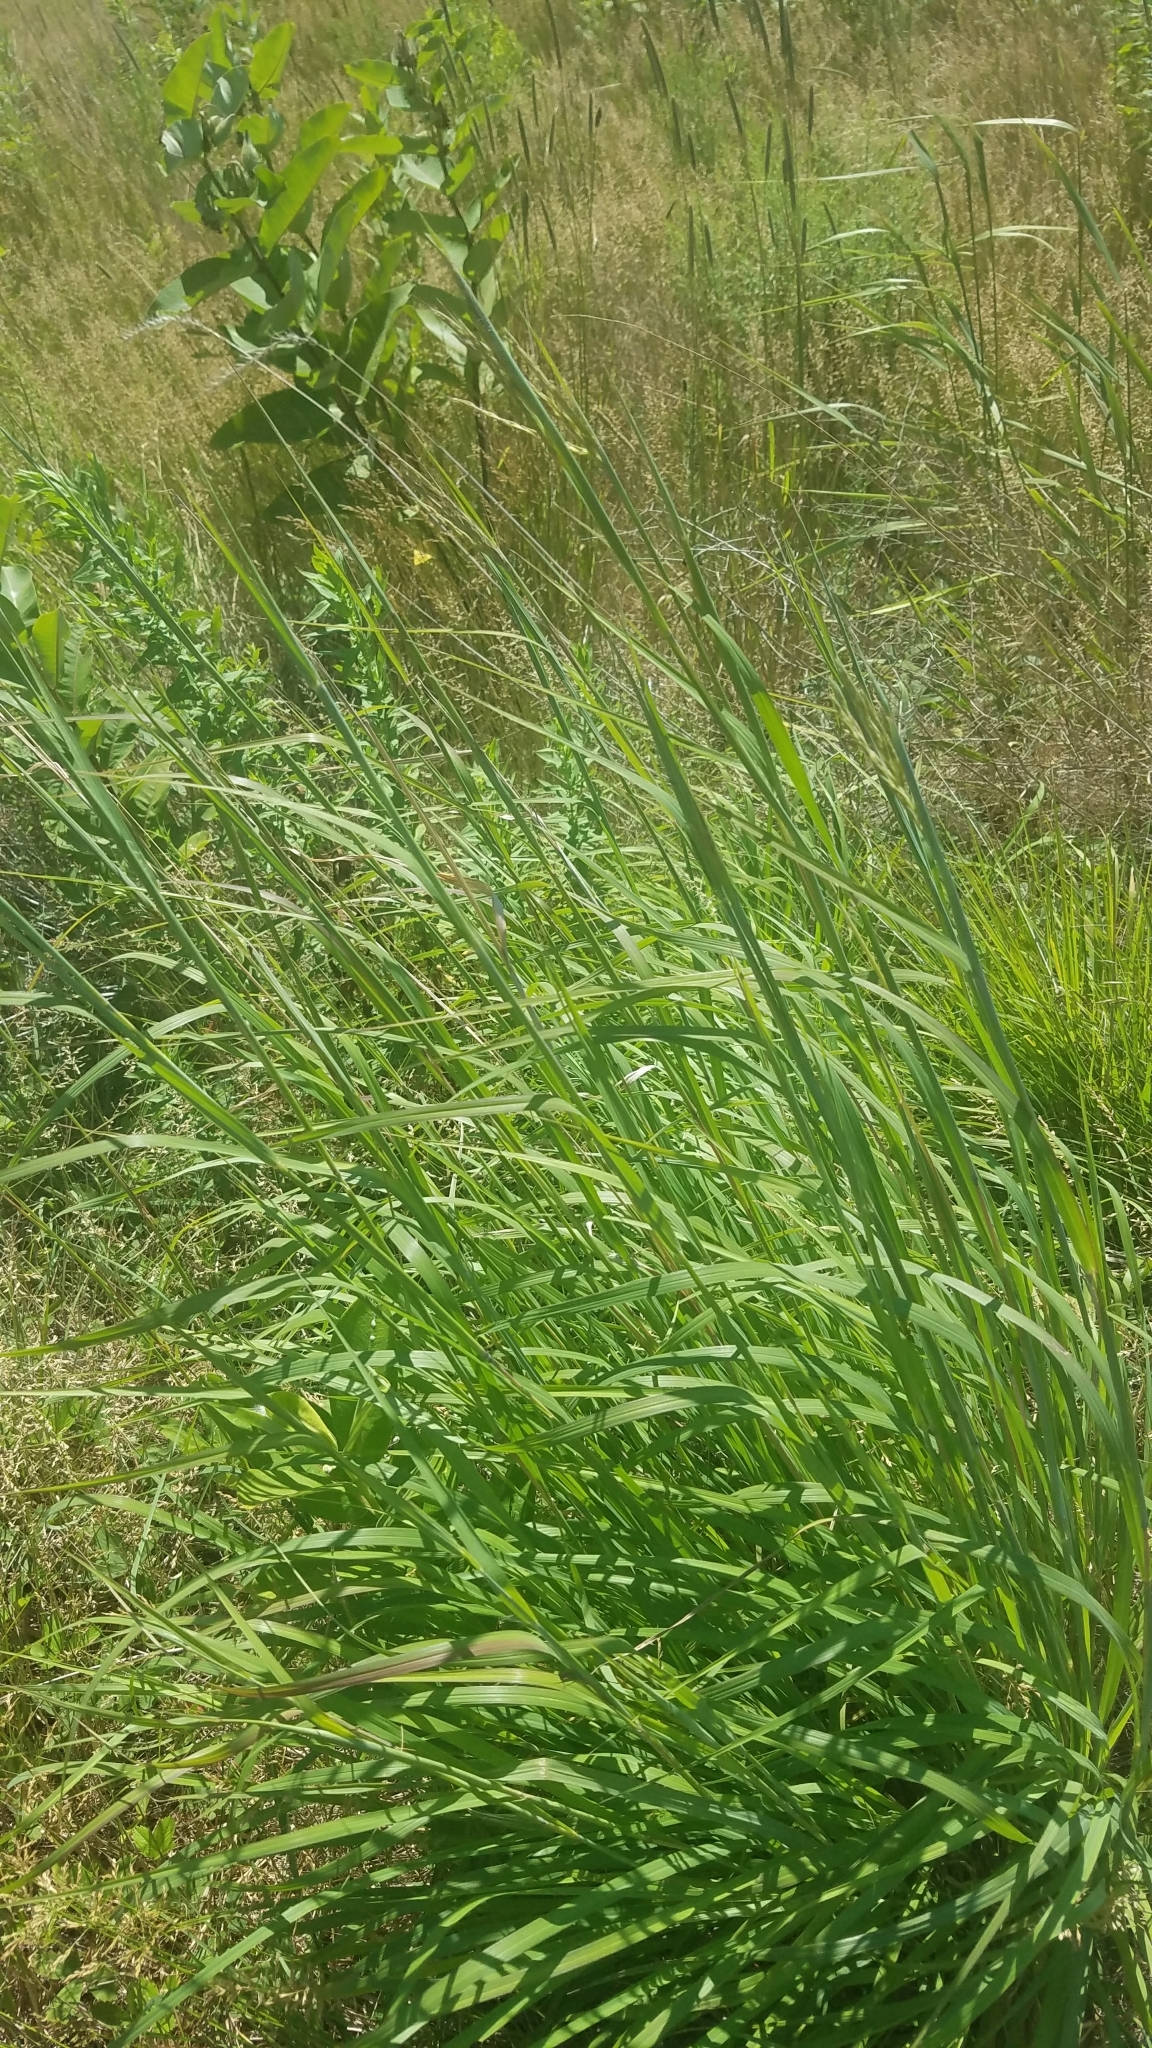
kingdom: Plantae
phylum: Tracheophyta
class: Liliopsida
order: Poales
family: Poaceae
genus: Andropogon
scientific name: Andropogon gerardi
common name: Big bluestem
